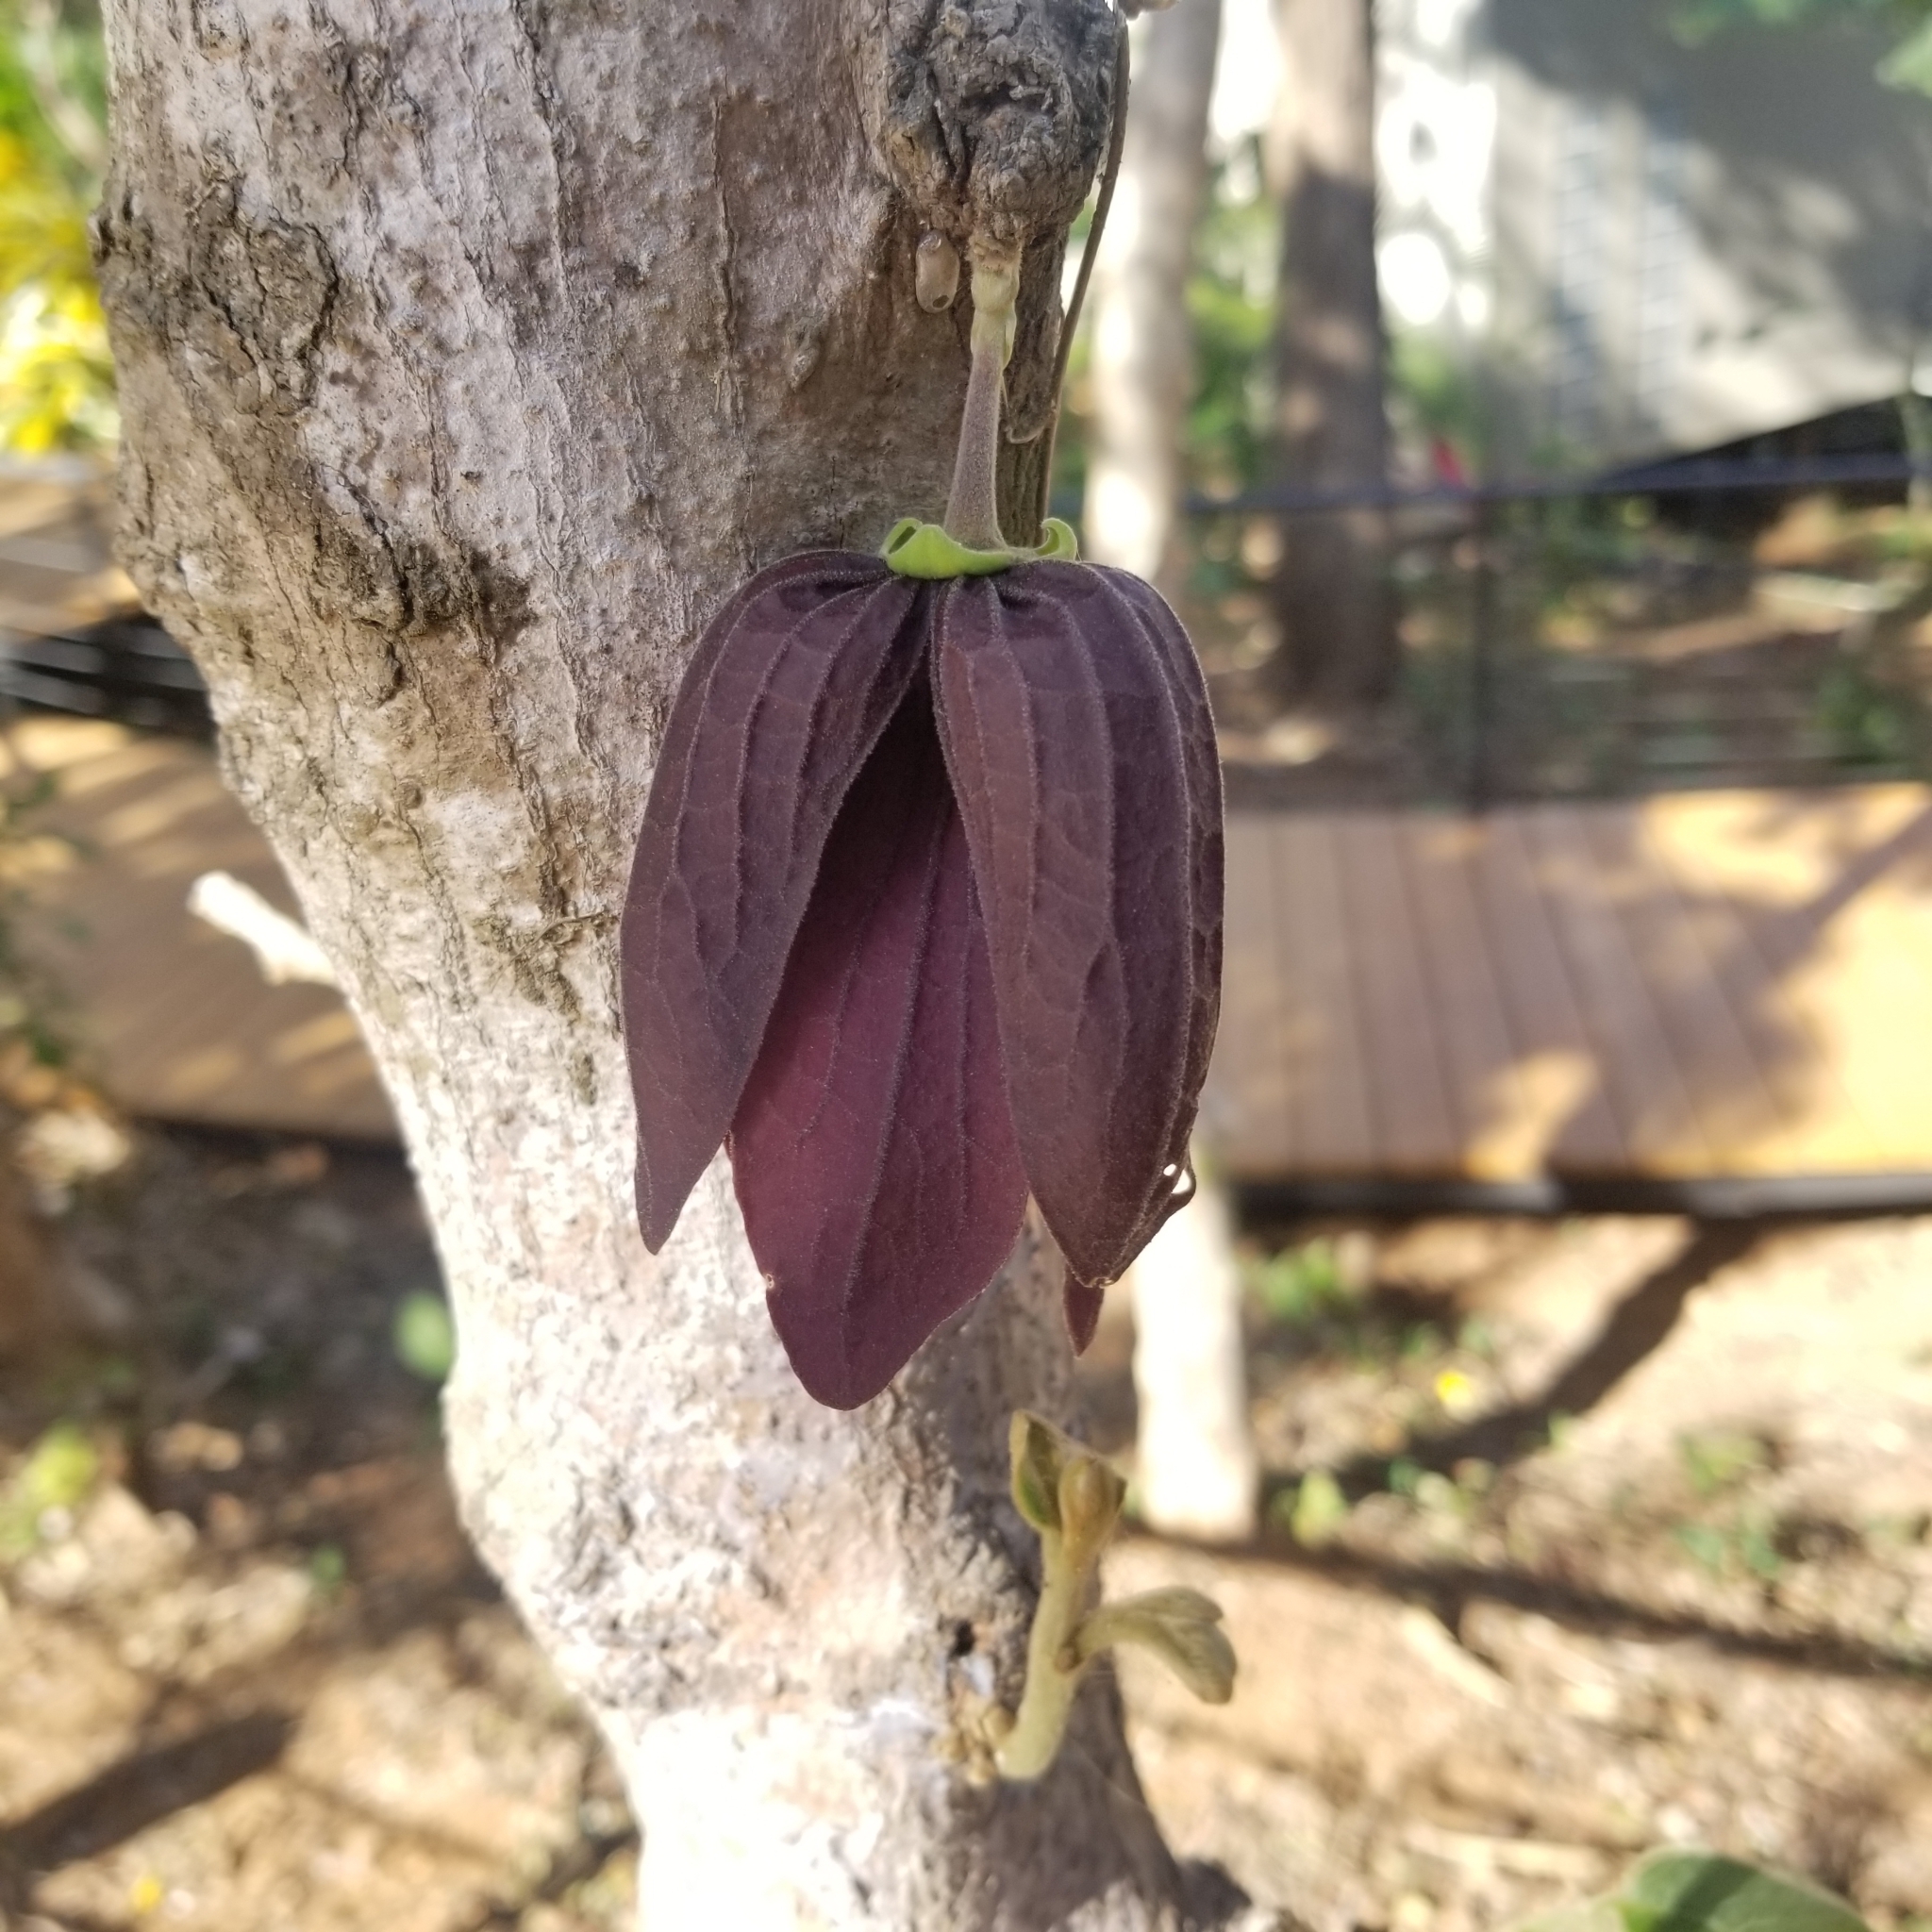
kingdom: Plantae
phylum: Tracheophyta
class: Magnoliopsida
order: Magnoliales
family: Annonaceae
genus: Sapranthus
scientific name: Sapranthus palanga
